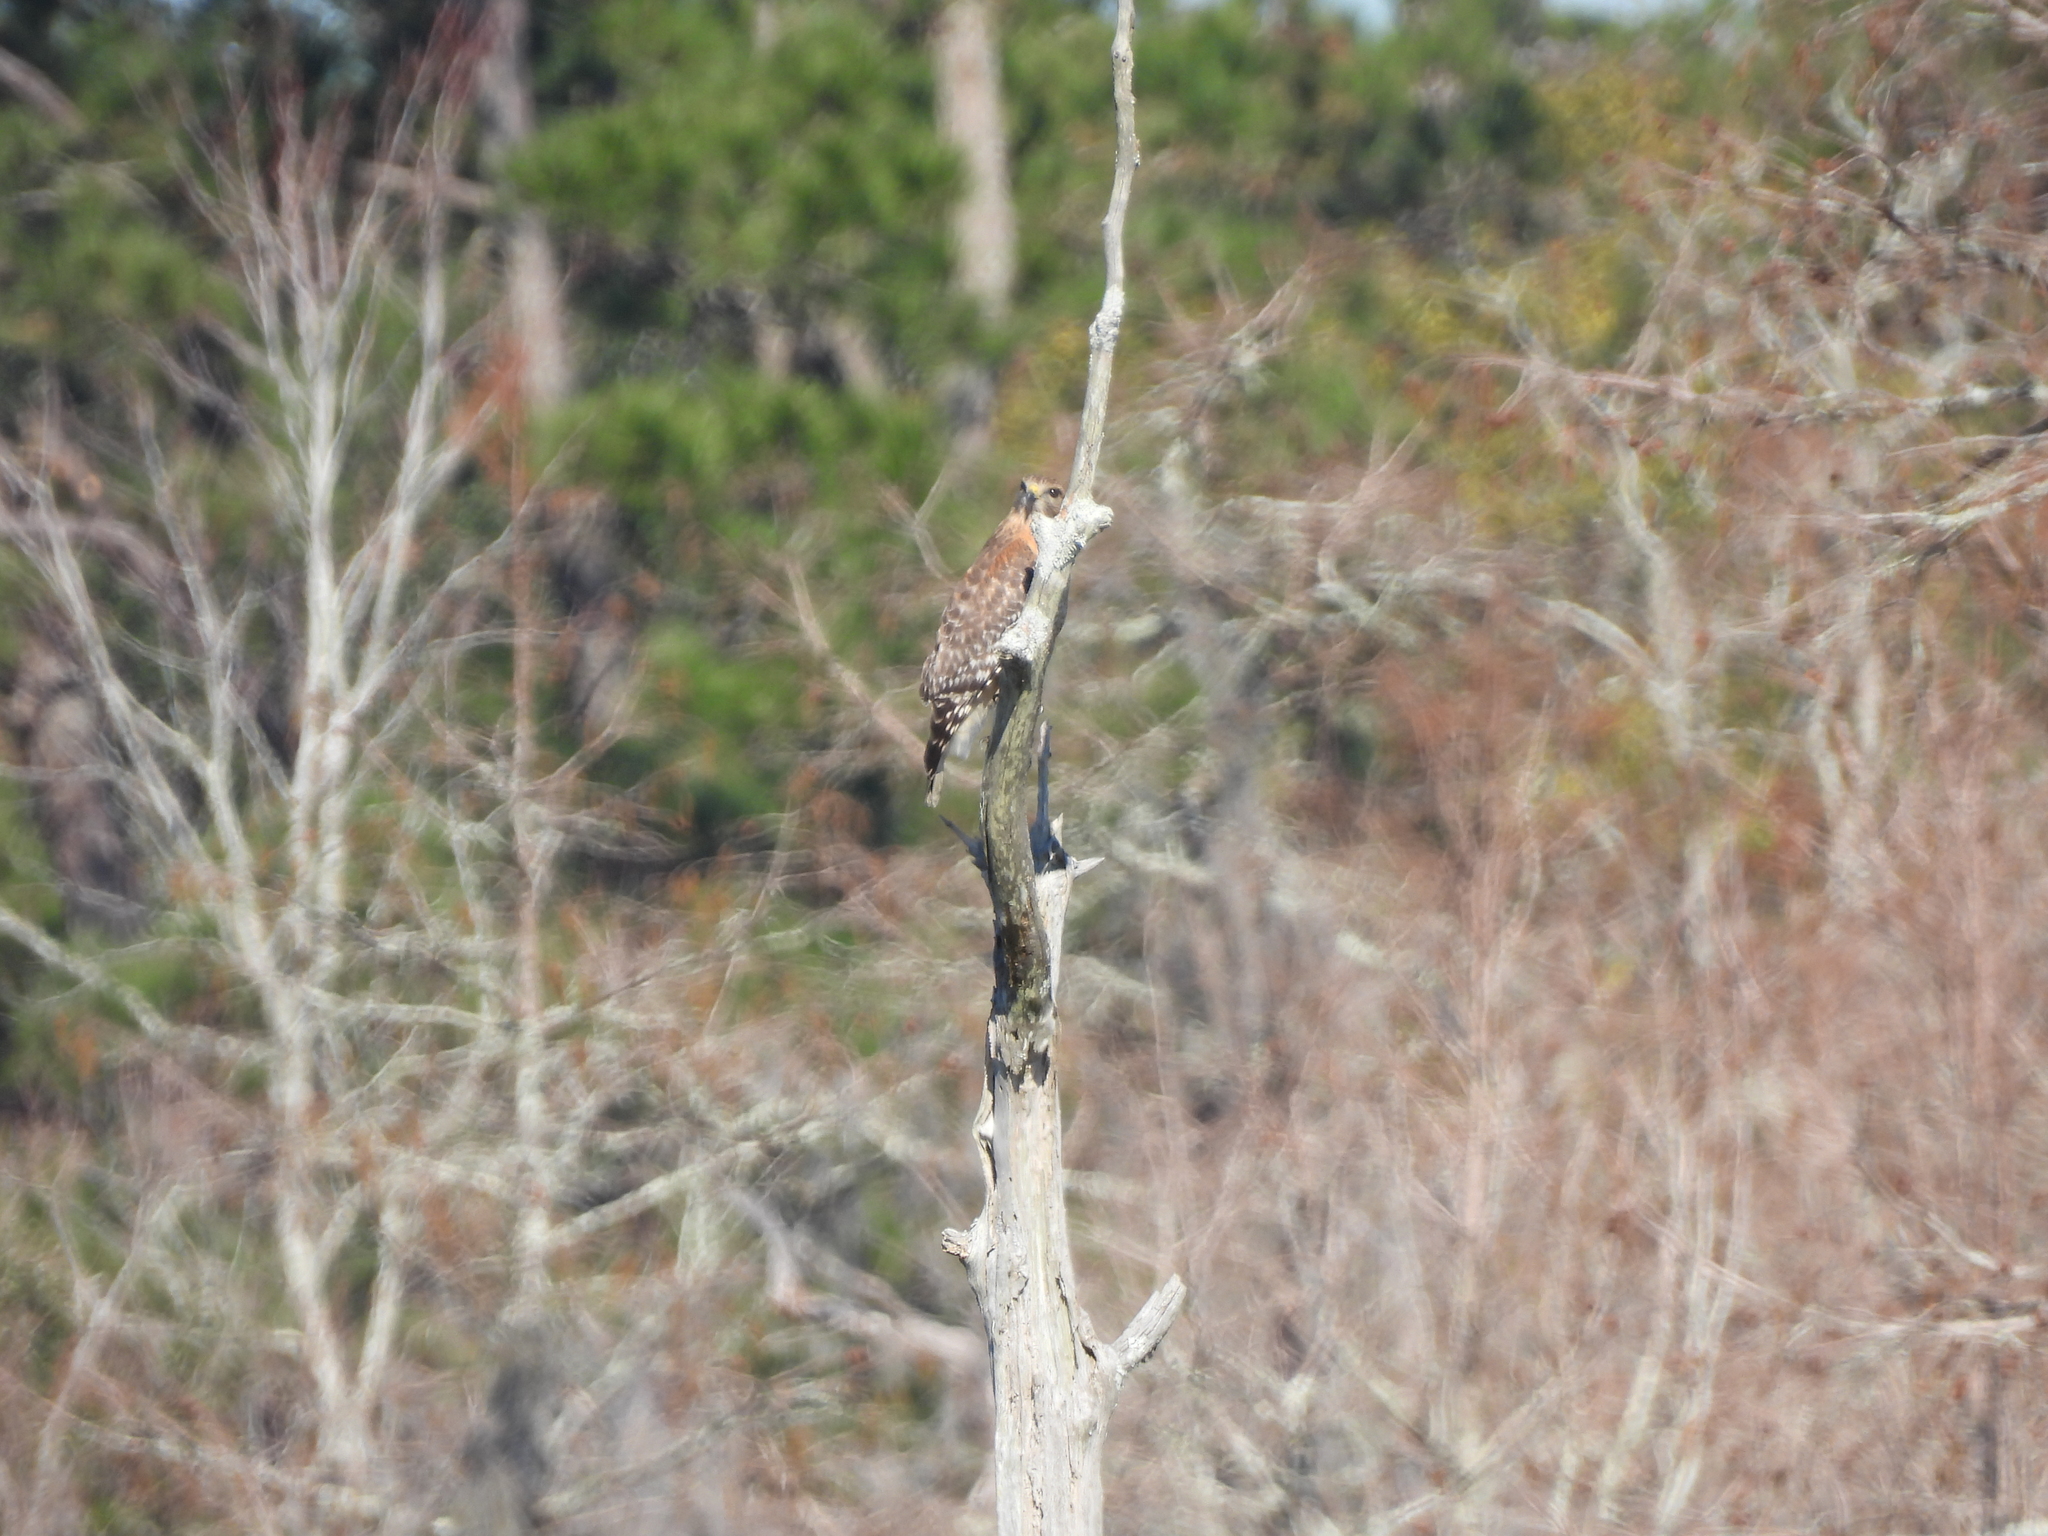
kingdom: Animalia
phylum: Chordata
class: Aves
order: Accipitriformes
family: Accipitridae
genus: Buteo
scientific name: Buteo lineatus
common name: Red-shouldered hawk
